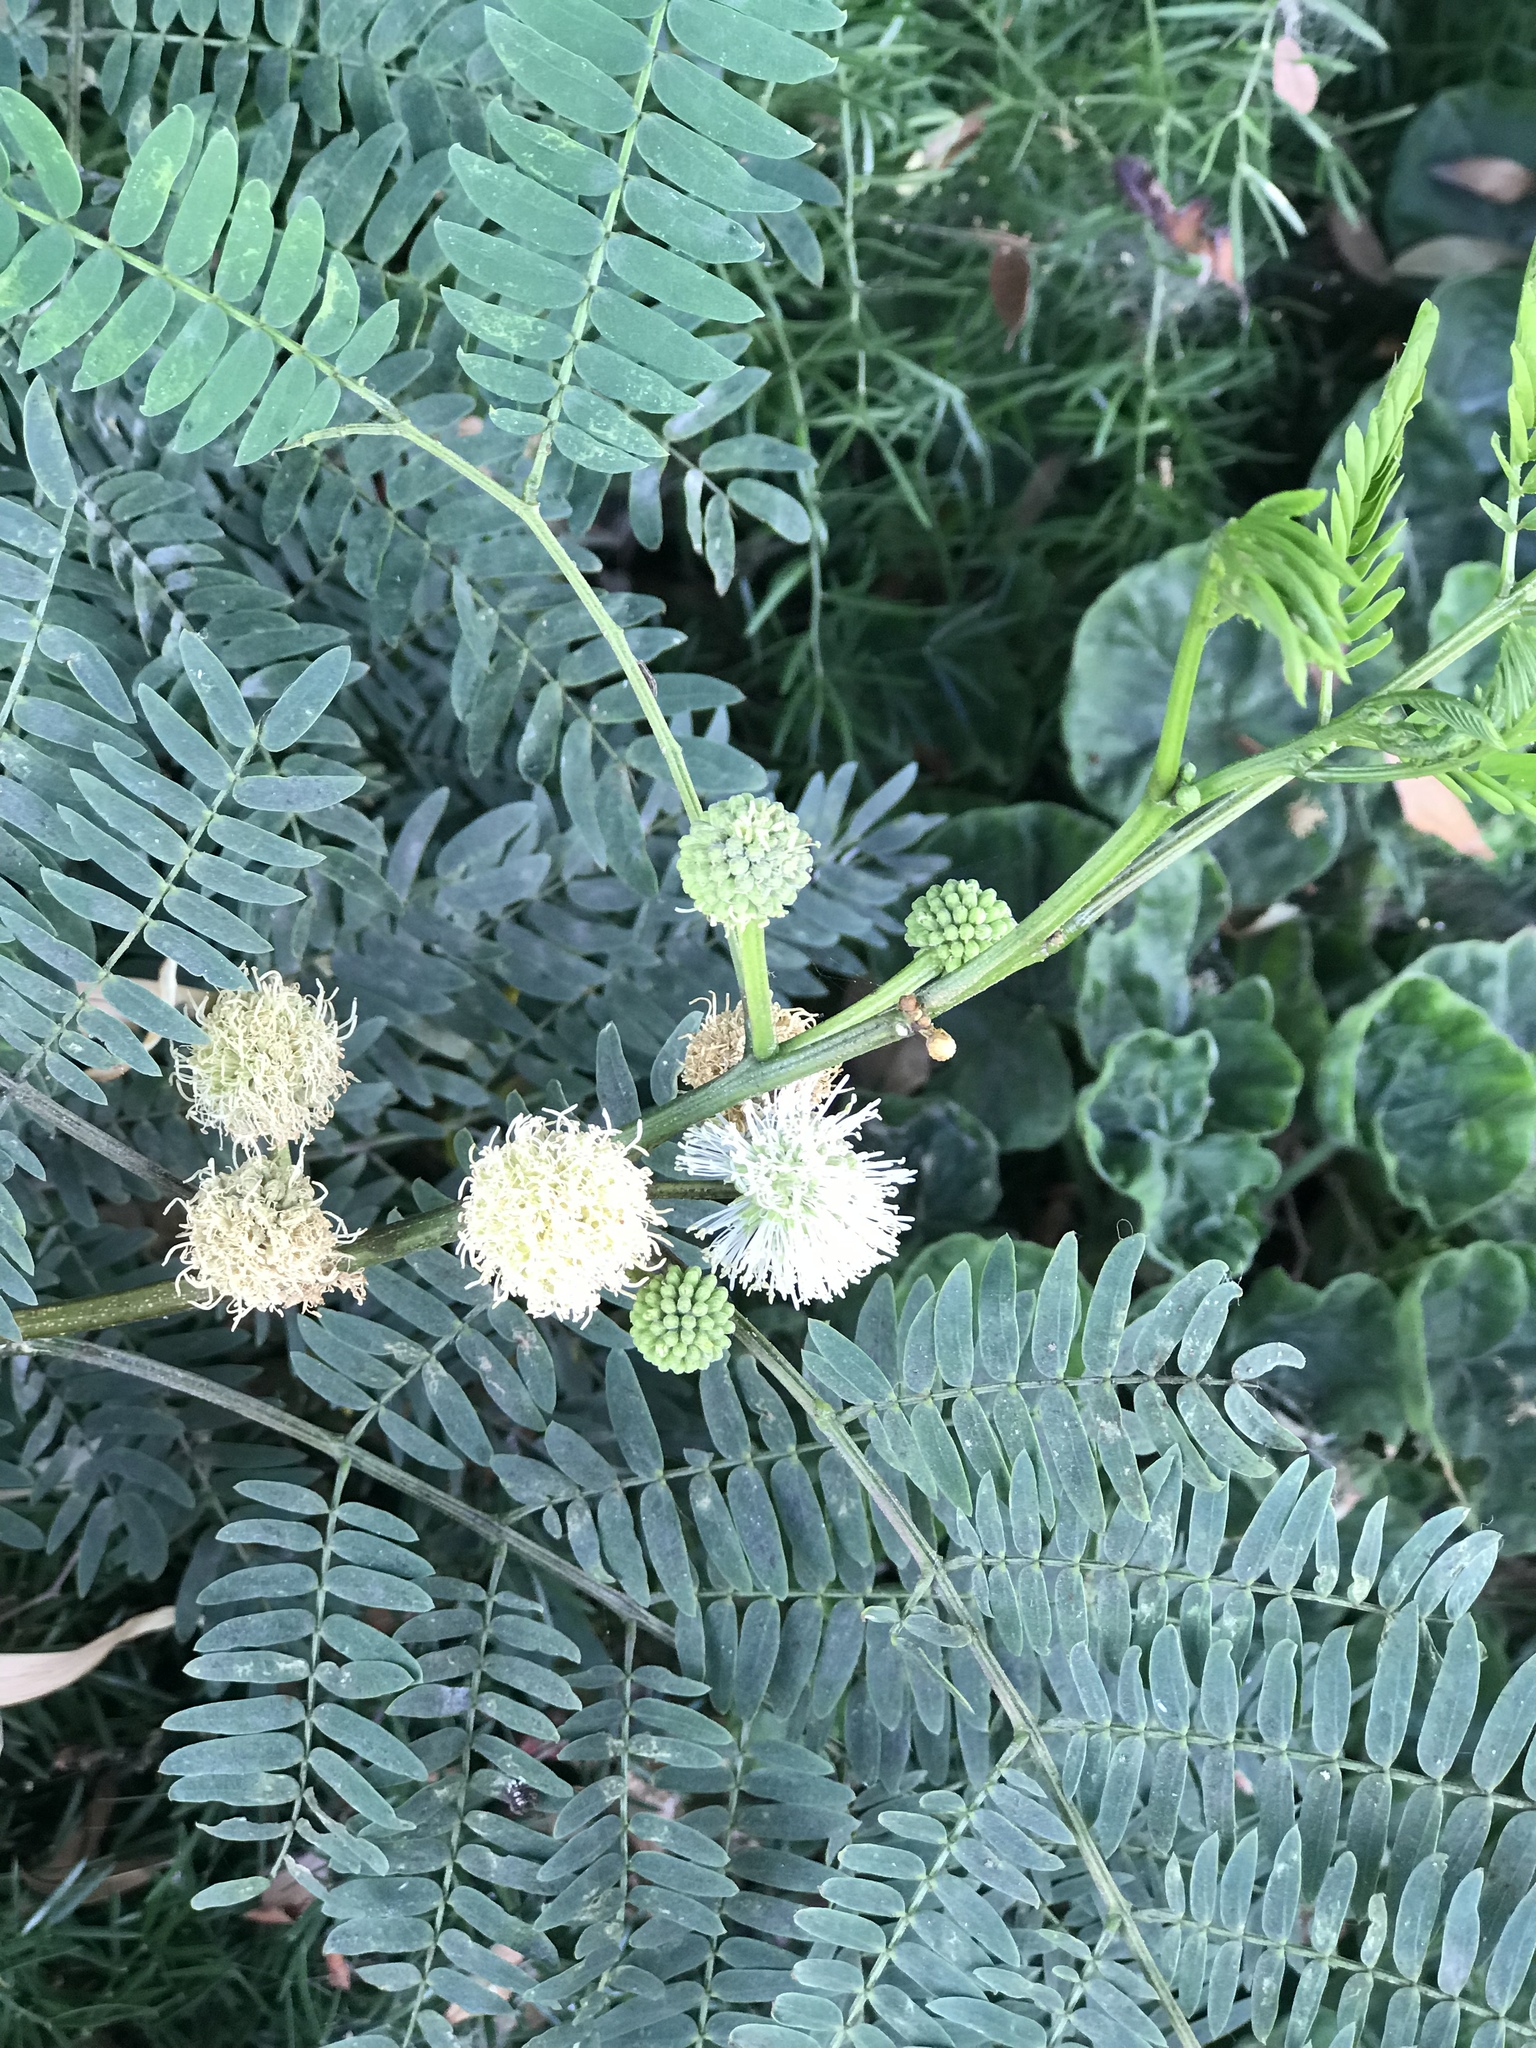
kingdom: Plantae
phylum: Tracheophyta
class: Magnoliopsida
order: Fabales
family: Fabaceae
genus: Leucaena
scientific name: Leucaena leucocephala
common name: White leadtree
